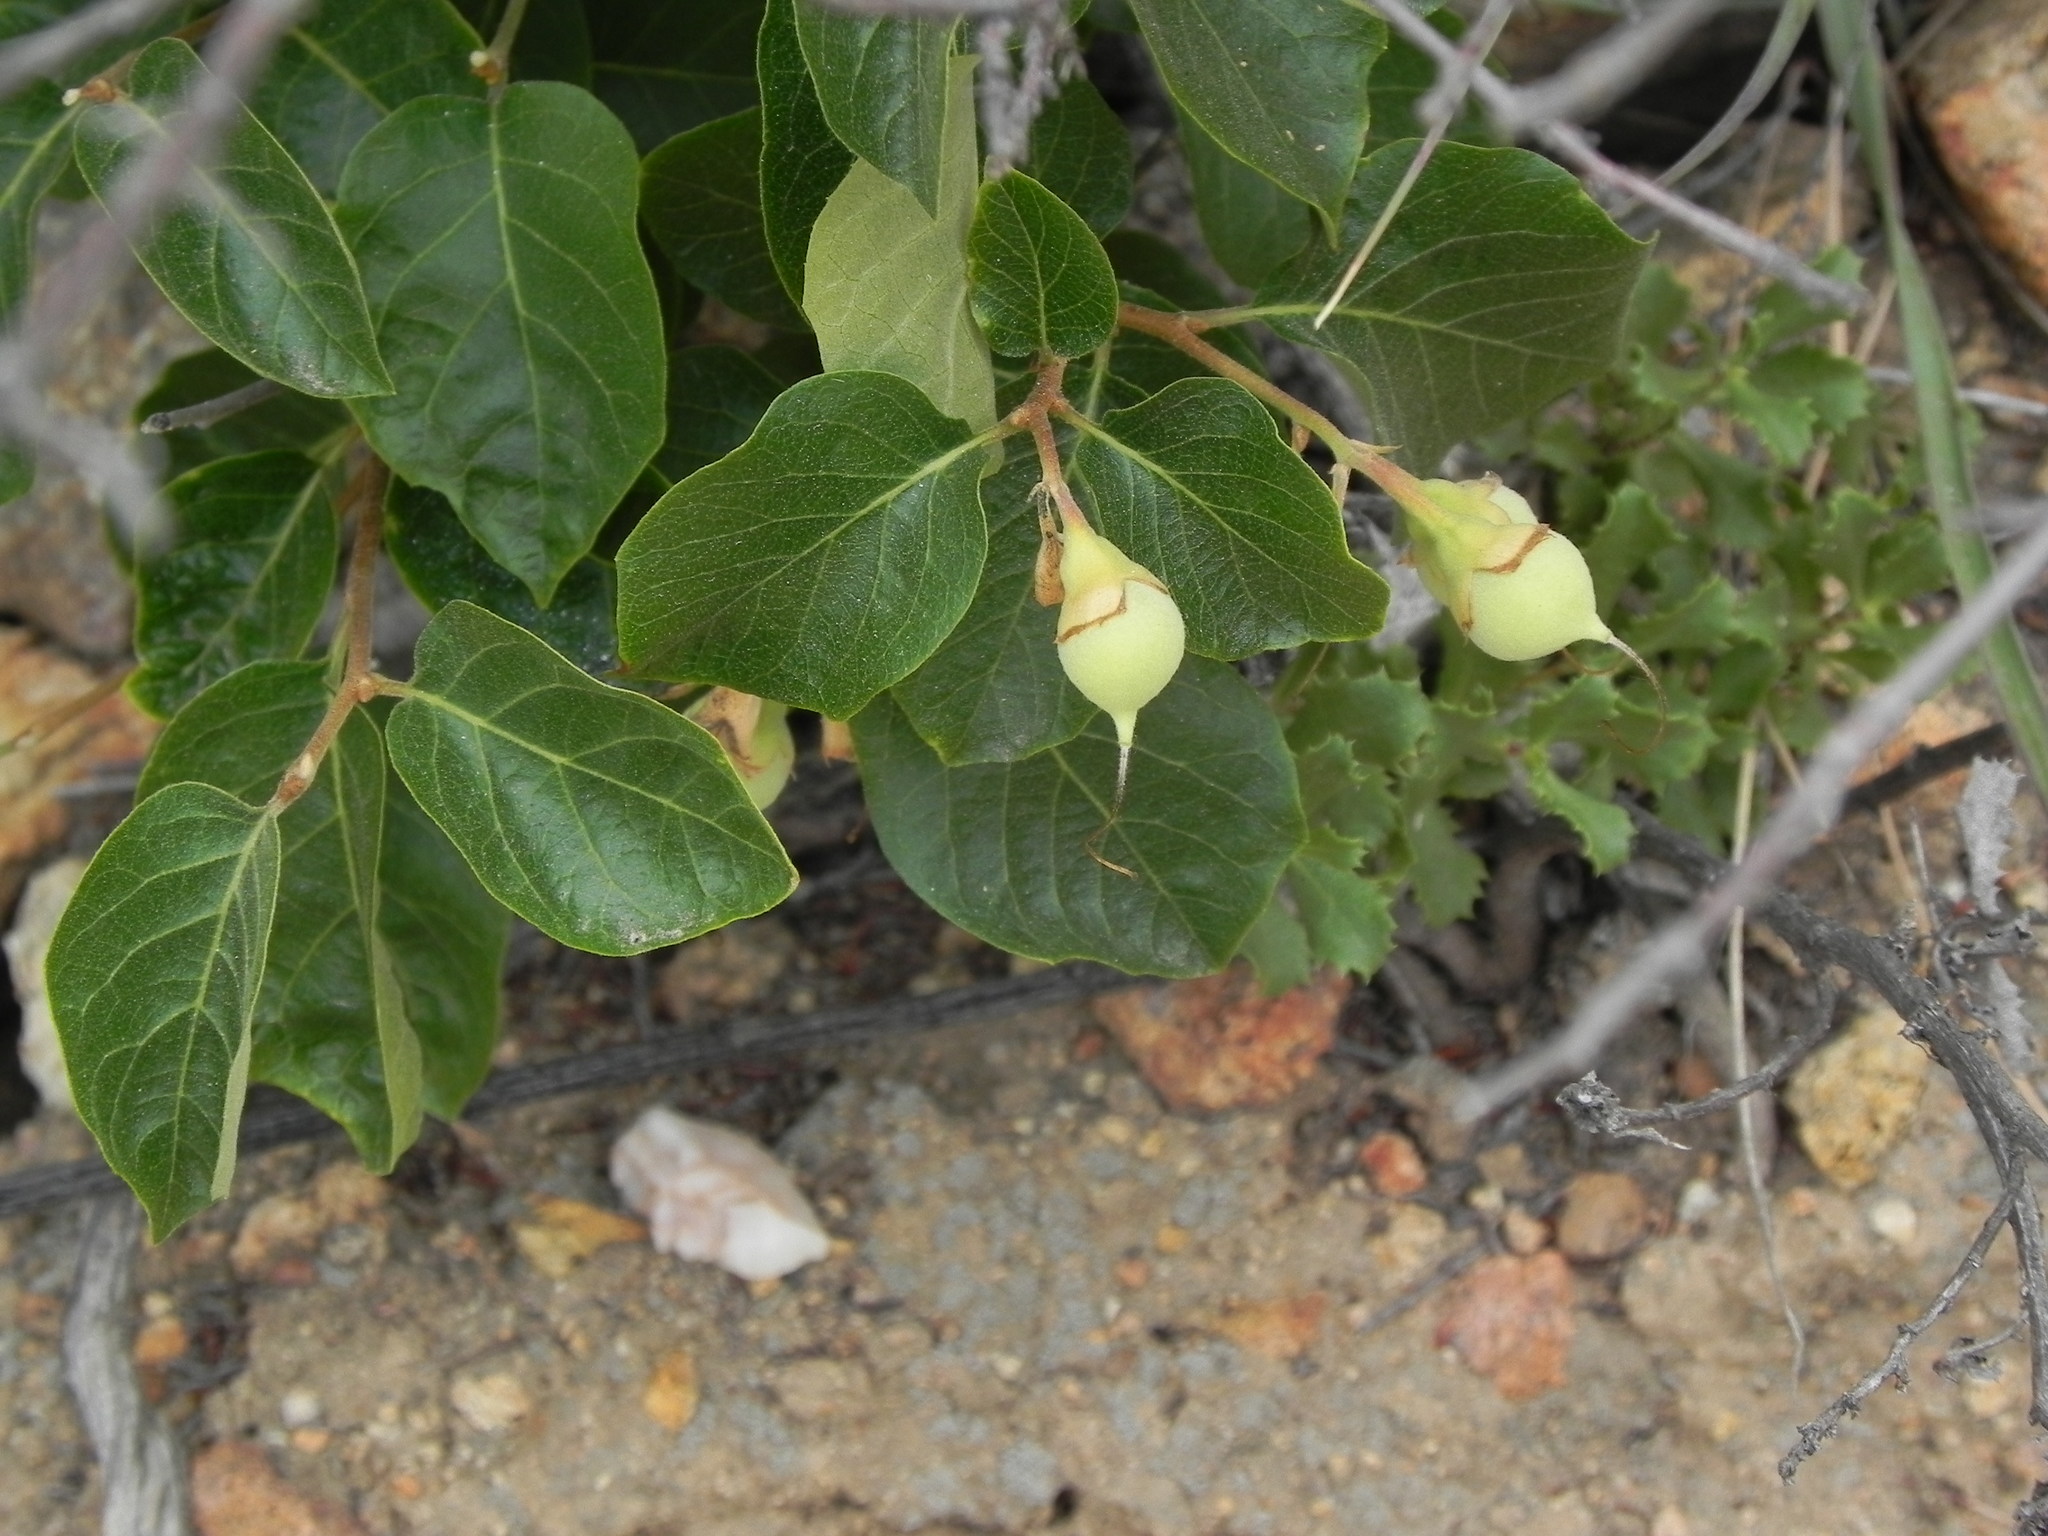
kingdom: Plantae
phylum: Tracheophyta
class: Magnoliopsida
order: Ericales
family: Styracaceae
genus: Styrax
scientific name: Styrax redivivus
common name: California styrax
